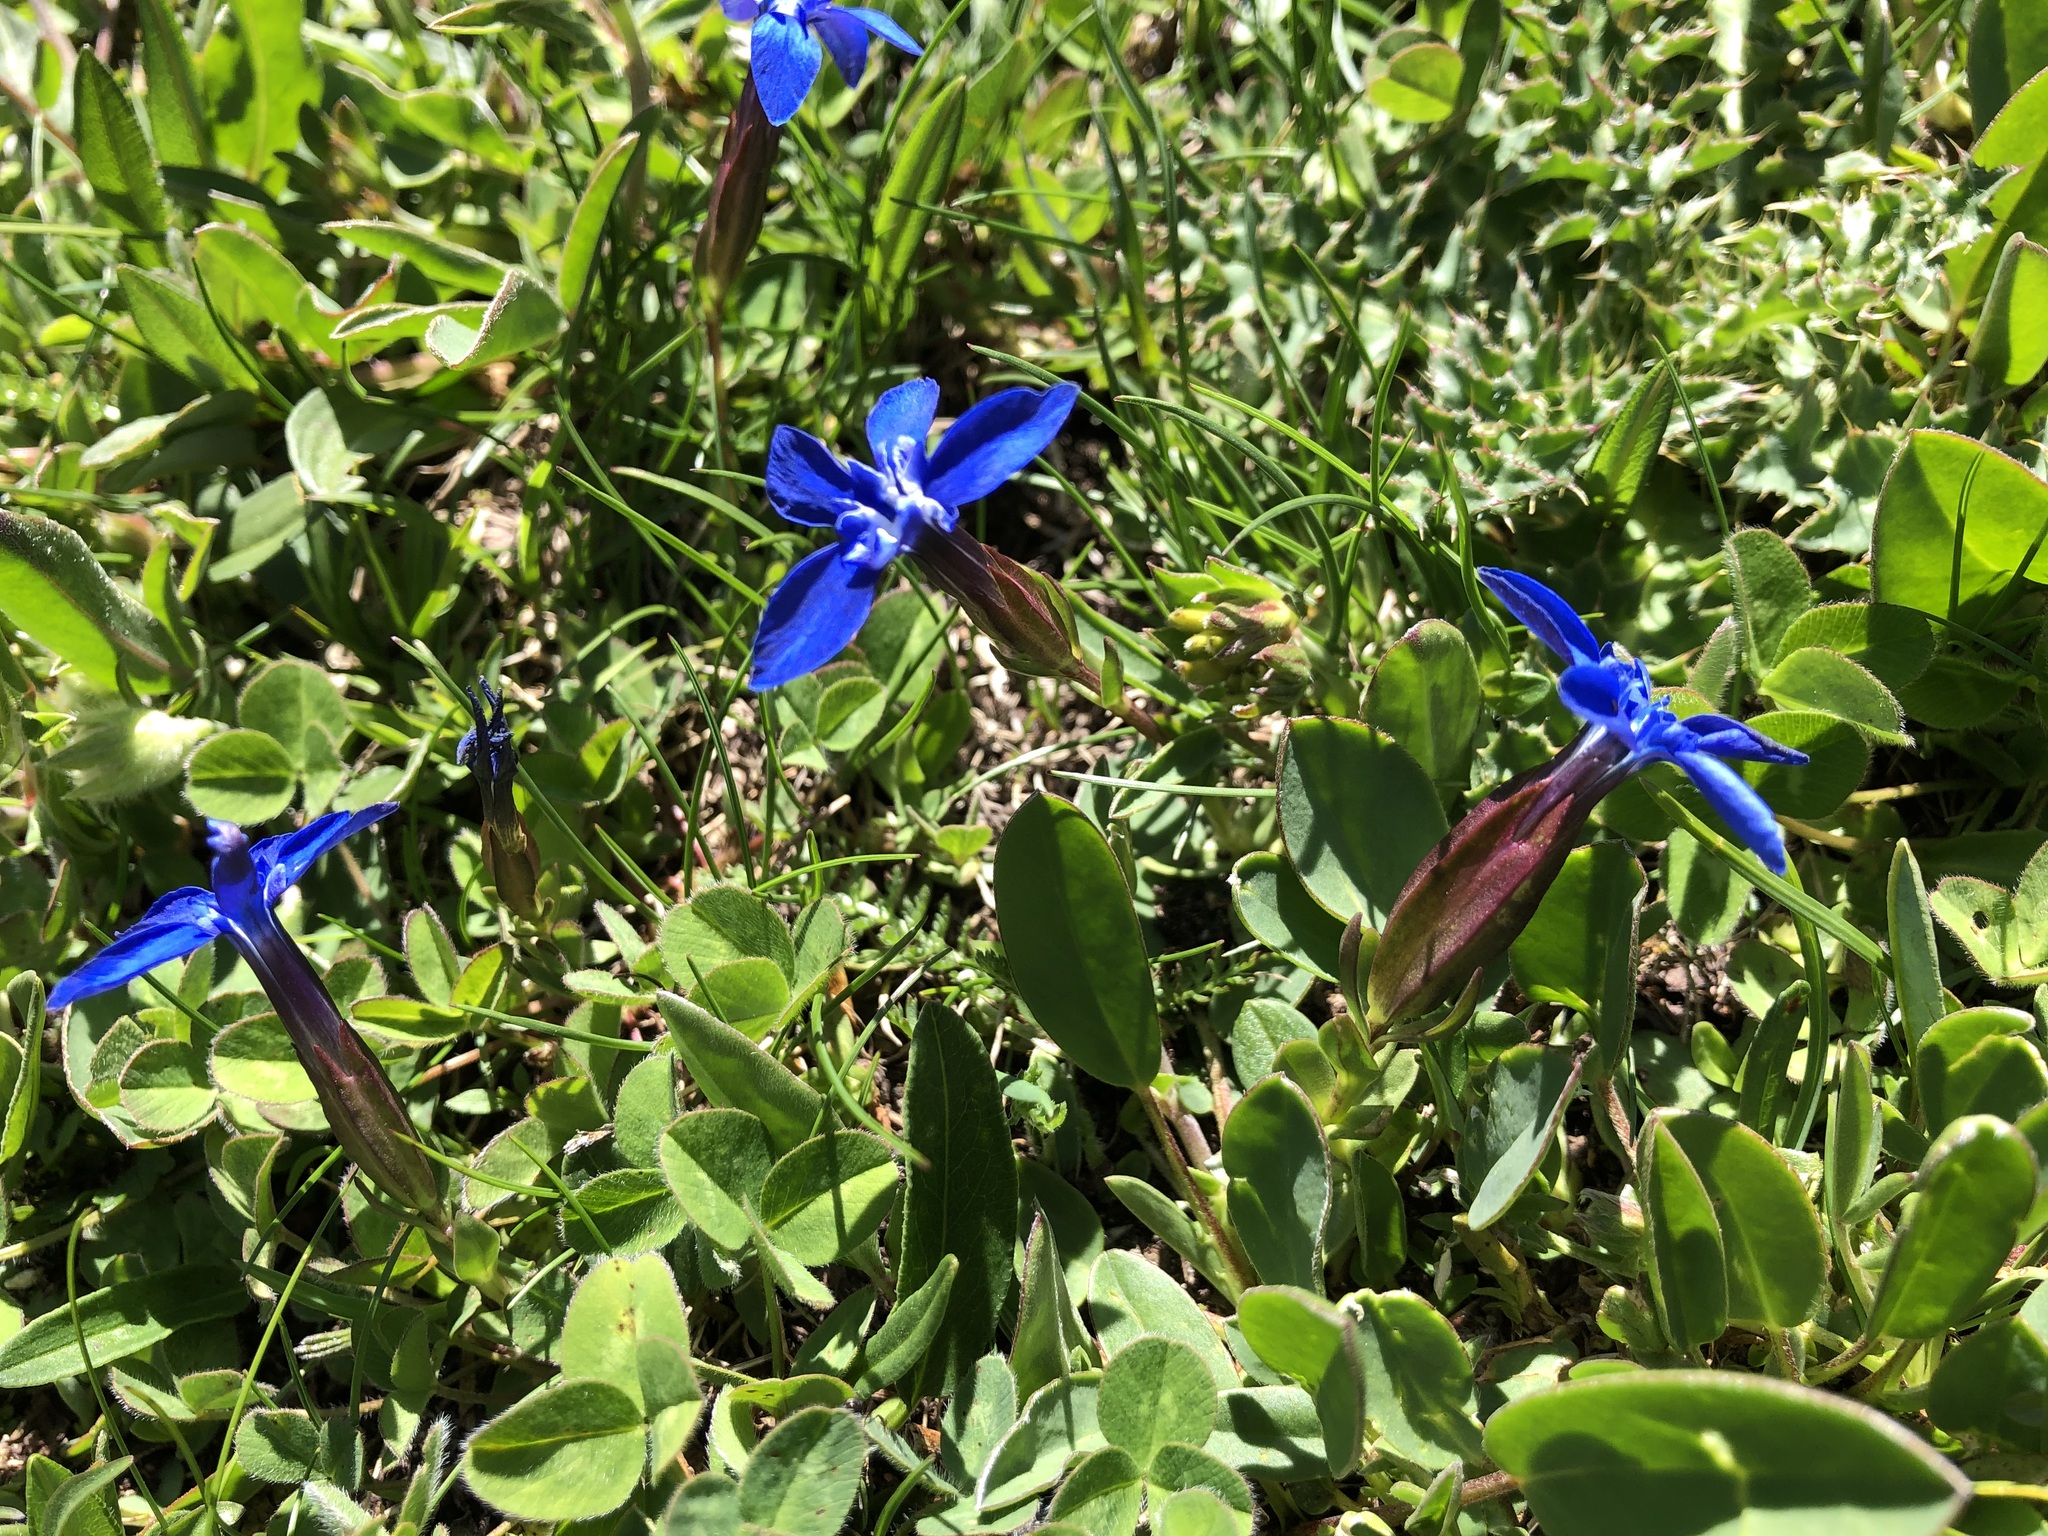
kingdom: Plantae
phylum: Tracheophyta
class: Magnoliopsida
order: Gentianales
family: Gentianaceae
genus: Gentiana
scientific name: Gentiana verna
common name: Spring gentian
